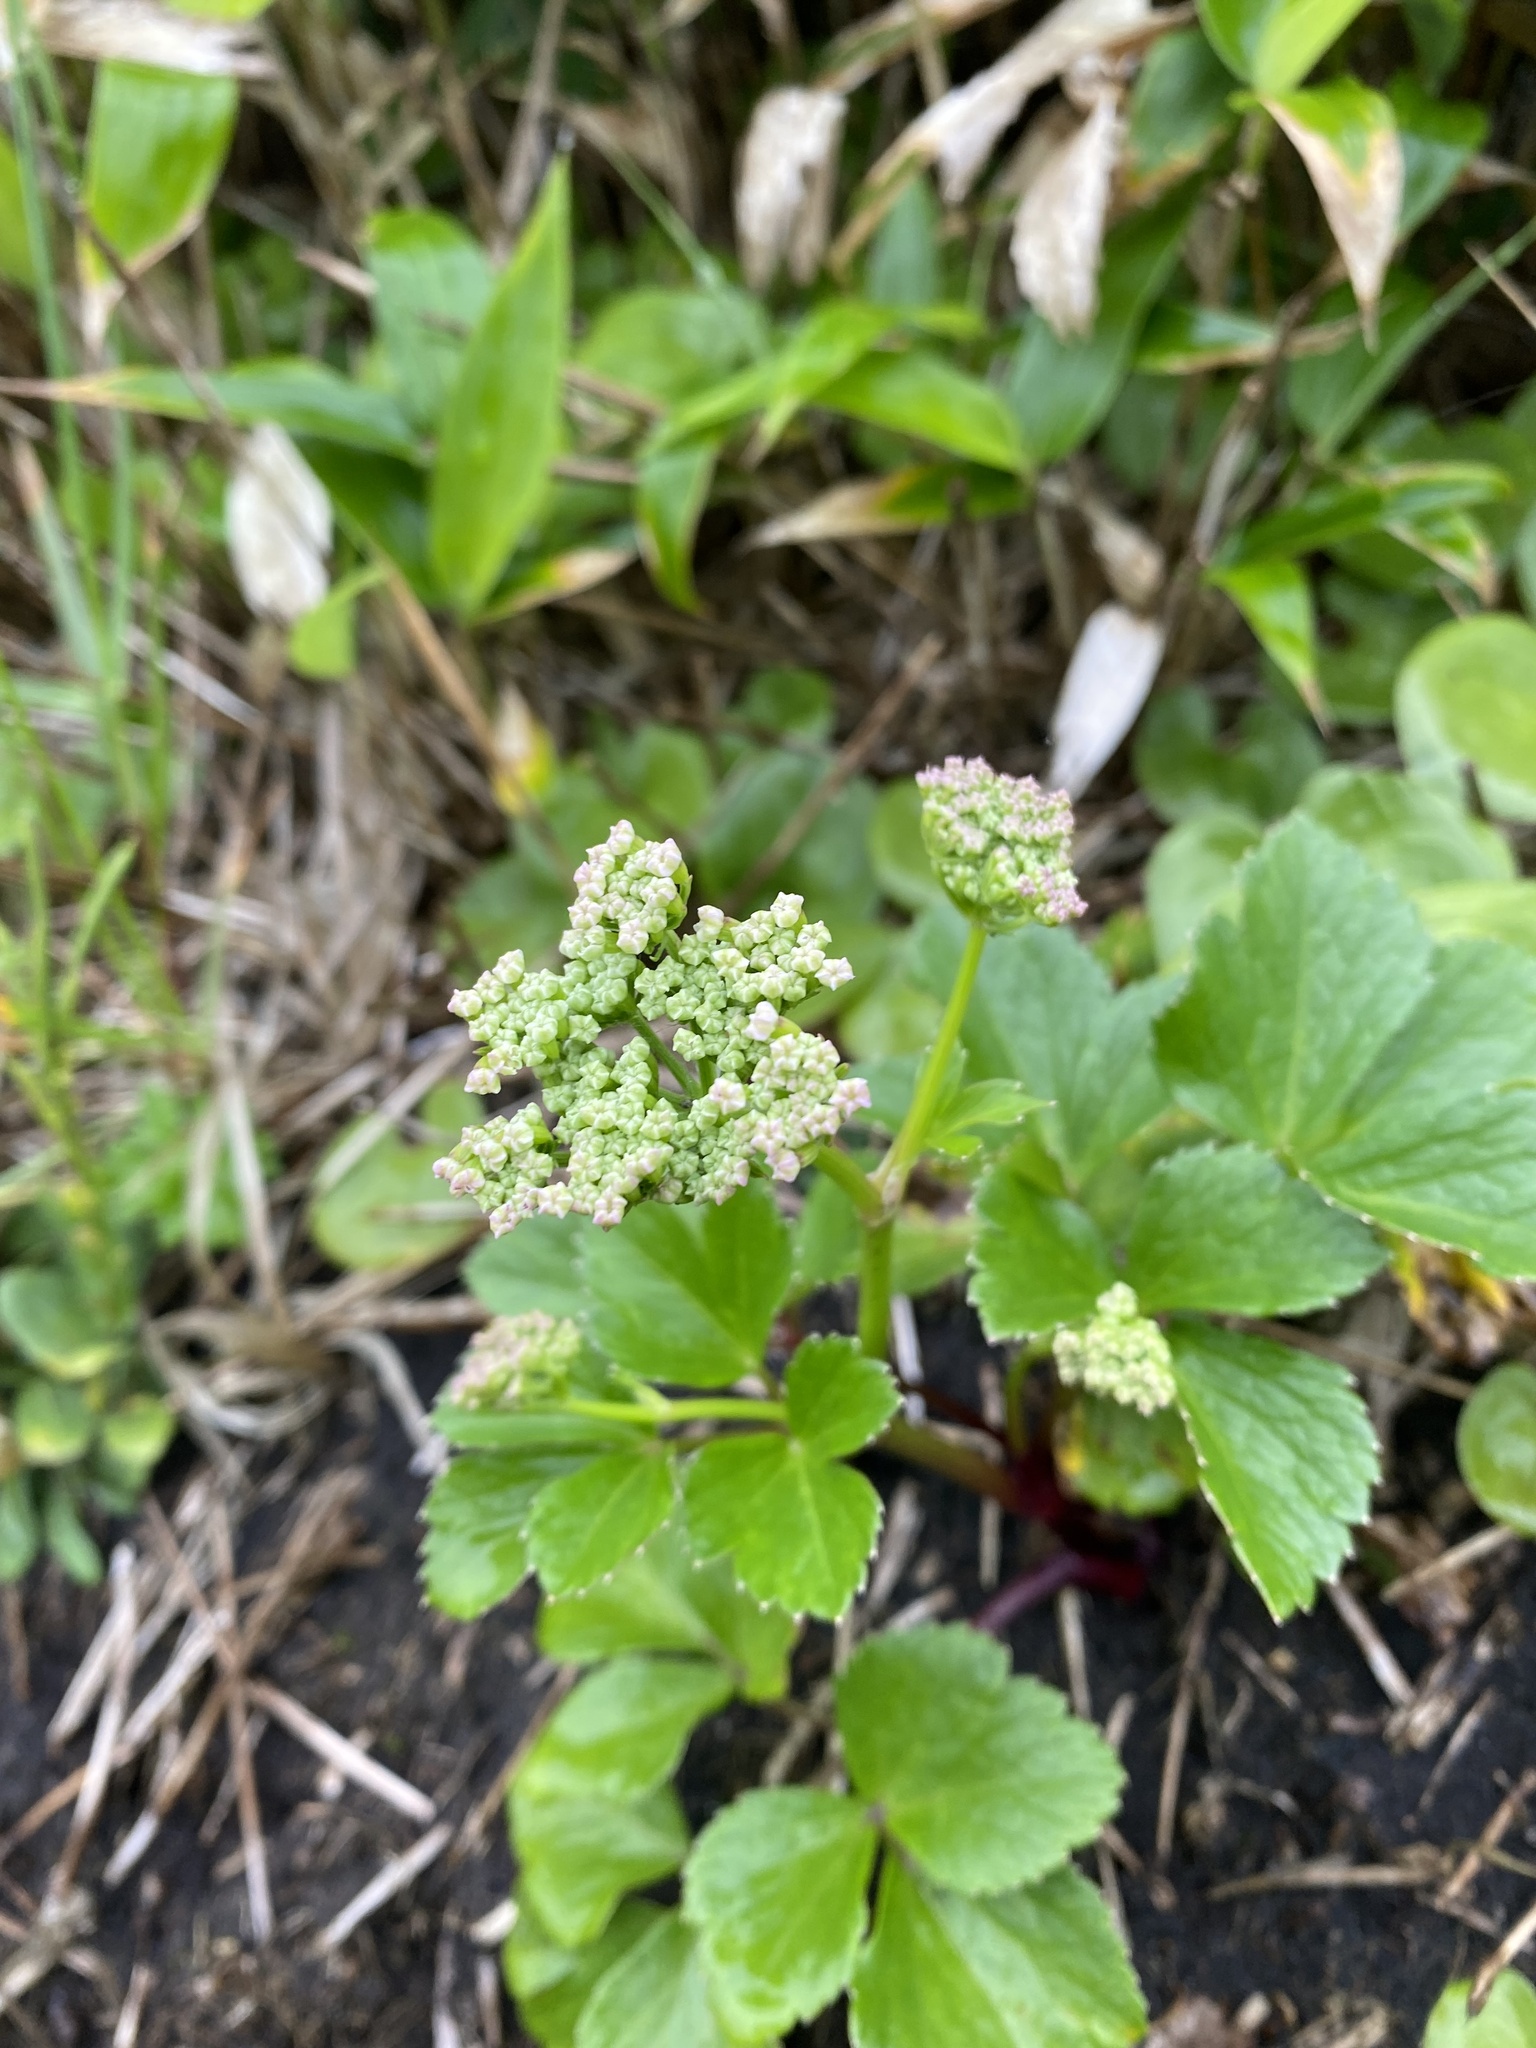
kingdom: Plantae
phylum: Tracheophyta
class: Magnoliopsida
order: Apiales
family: Apiaceae
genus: Ligusticum
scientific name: Ligusticum scothicum
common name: Beach lovage
